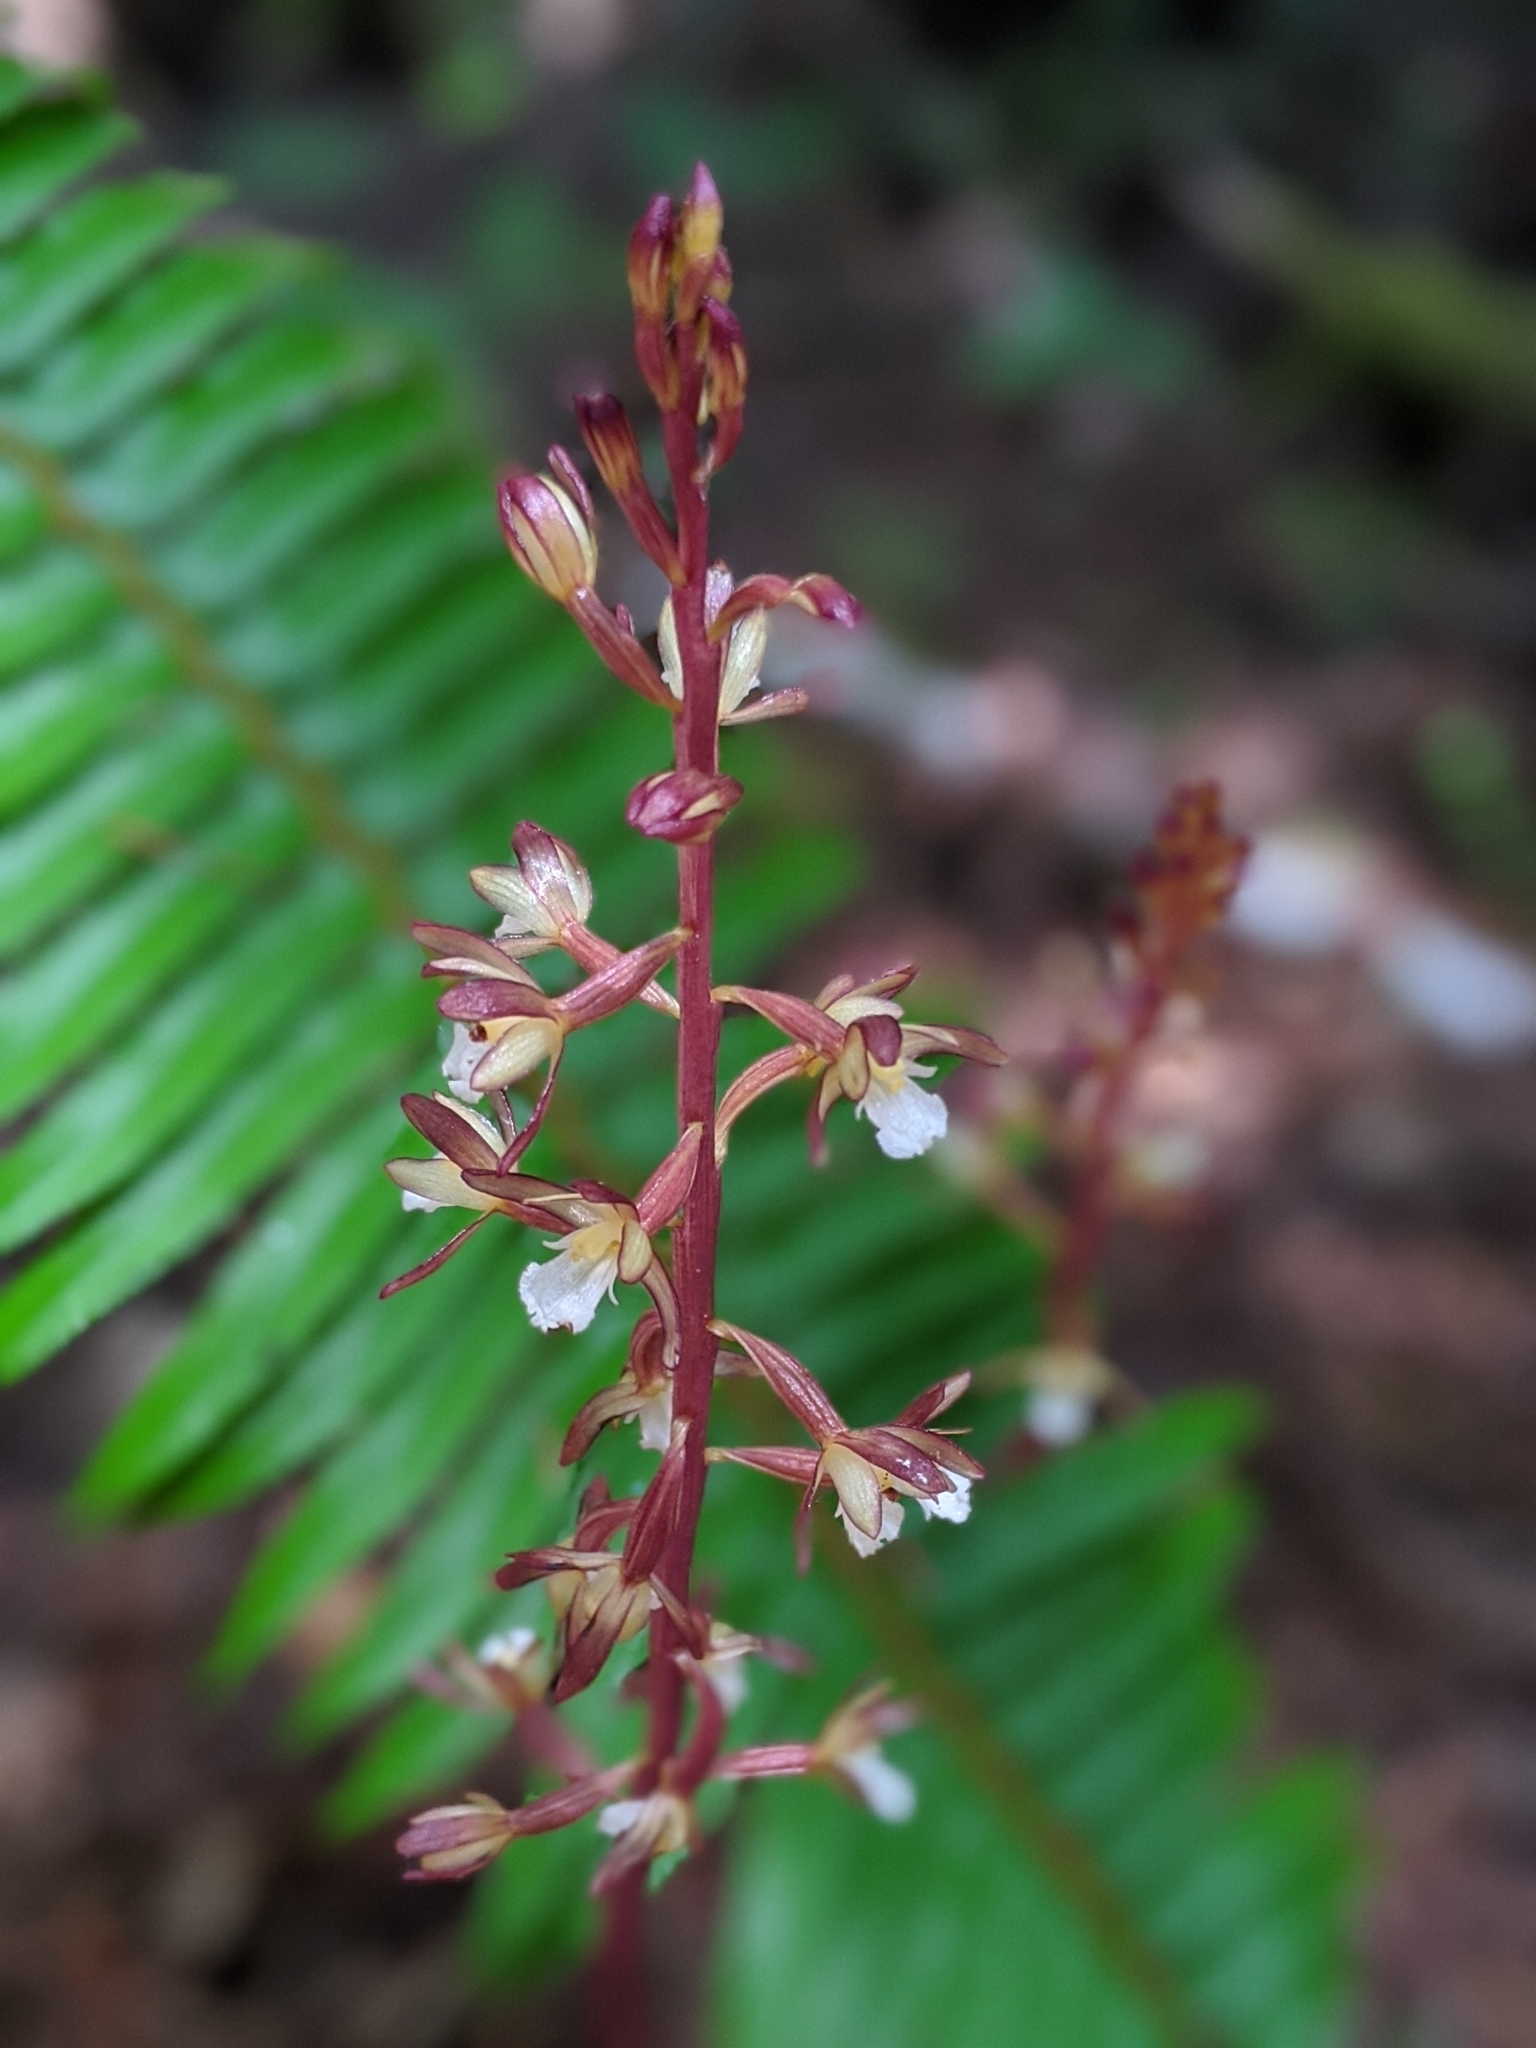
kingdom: Plantae
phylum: Tracheophyta
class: Liliopsida
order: Asparagales
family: Orchidaceae
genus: Corallorhiza
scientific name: Corallorhiza maculata
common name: Spotted coralroot
